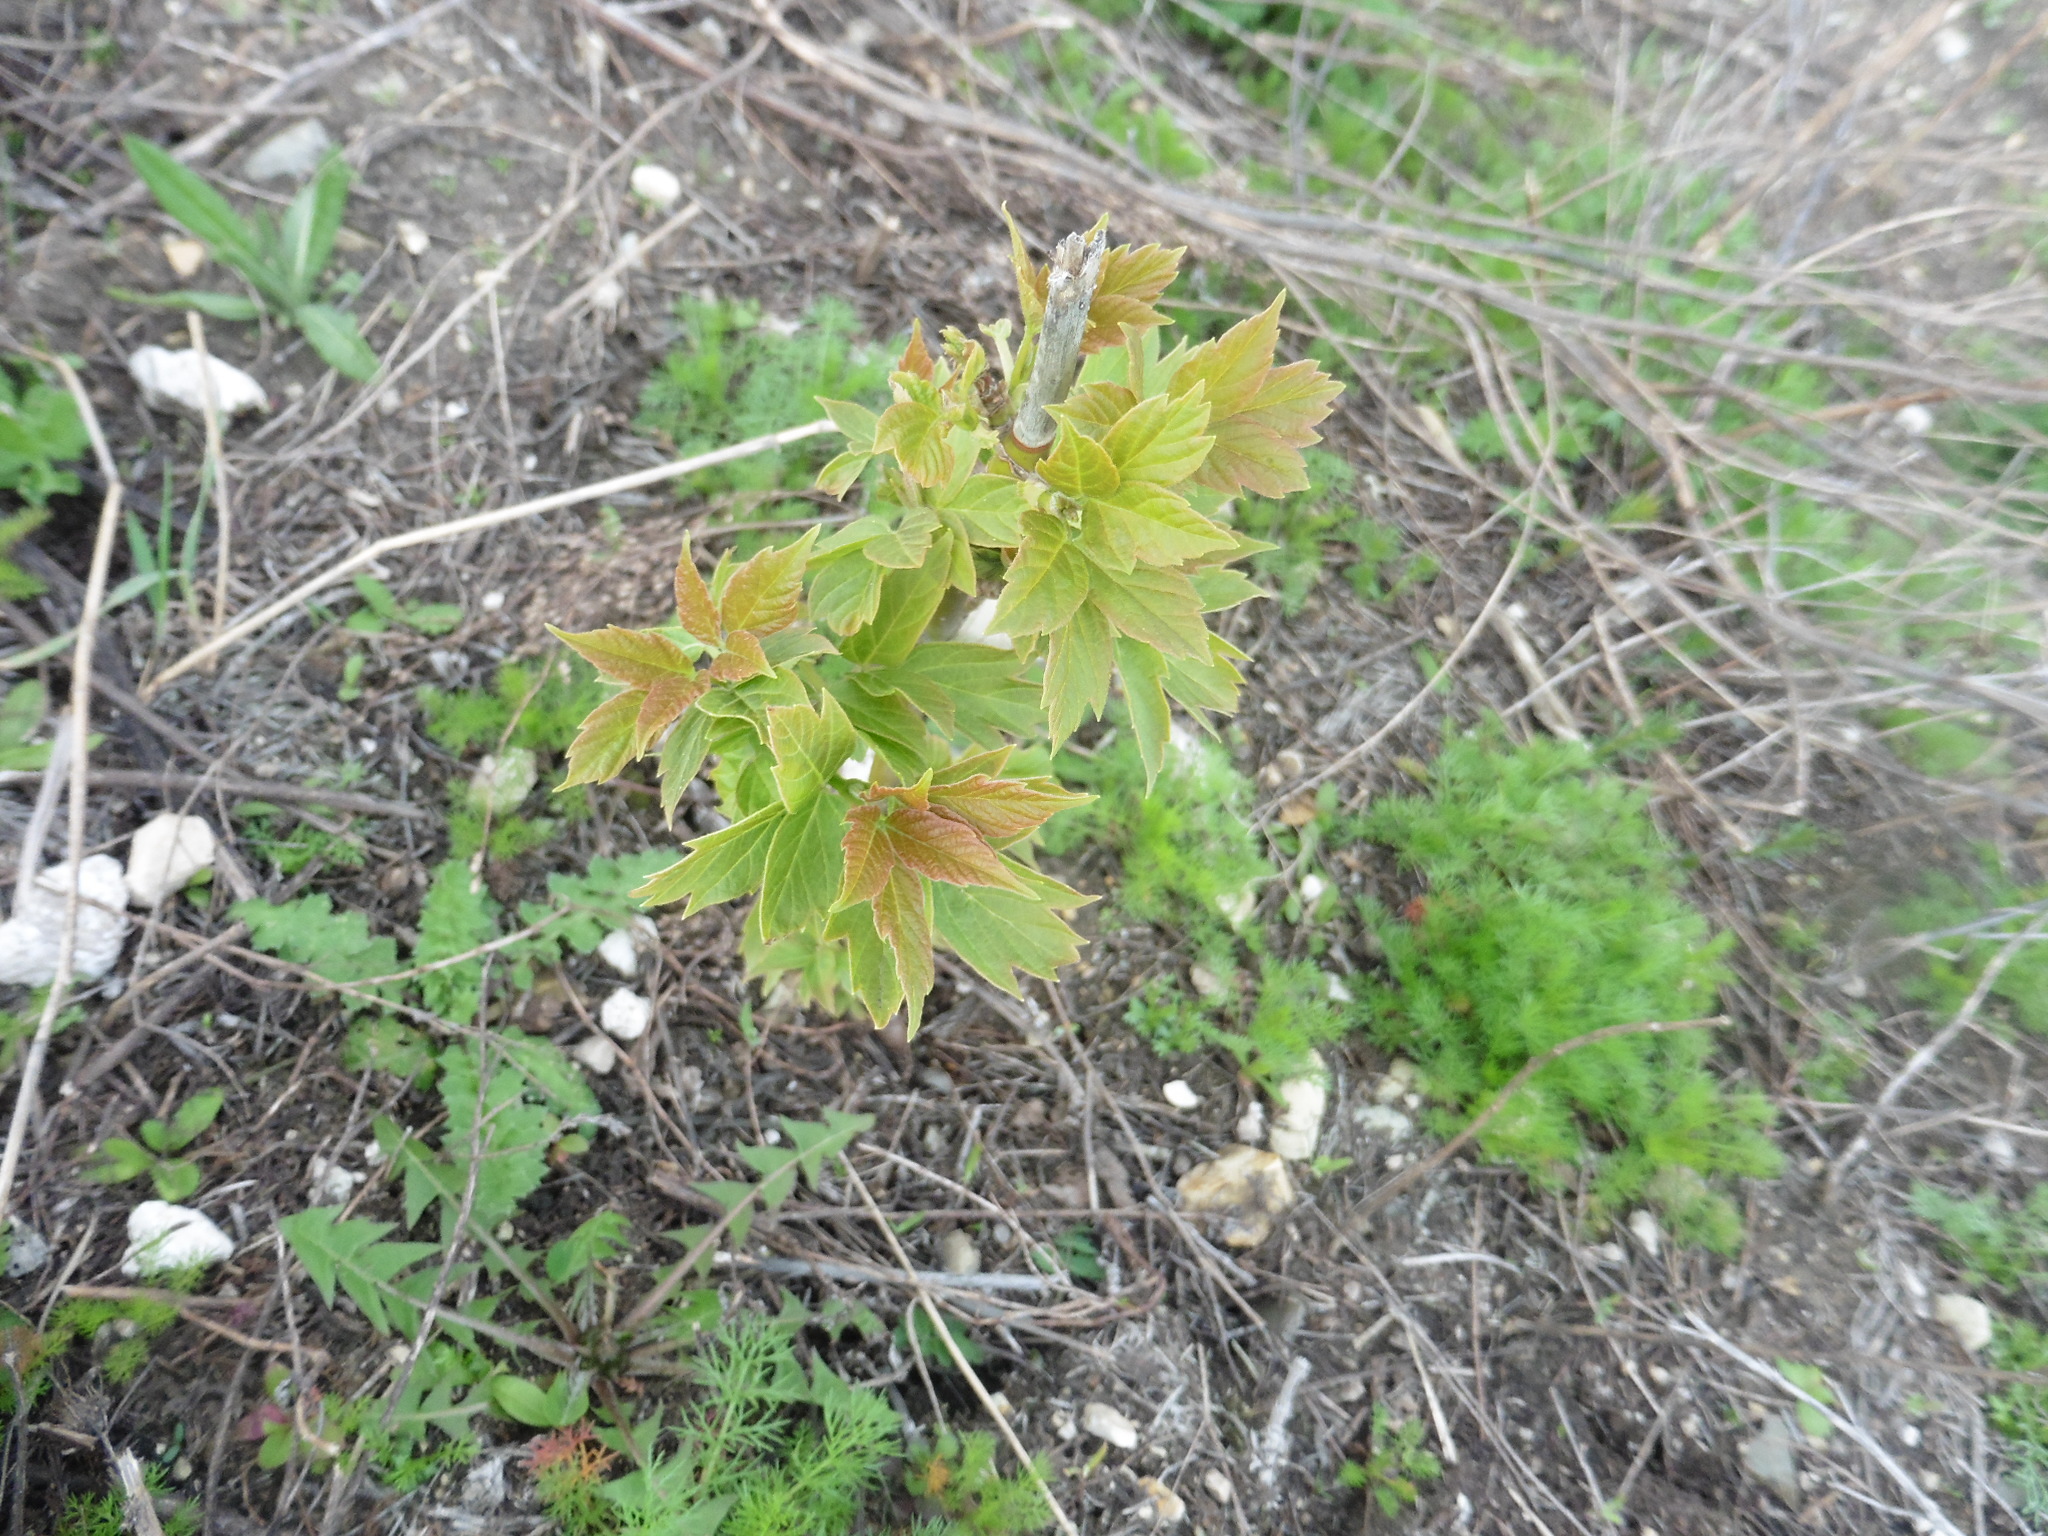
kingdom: Plantae
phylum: Tracheophyta
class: Magnoliopsida
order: Sapindales
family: Sapindaceae
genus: Acer
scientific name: Acer negundo
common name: Ashleaf maple
